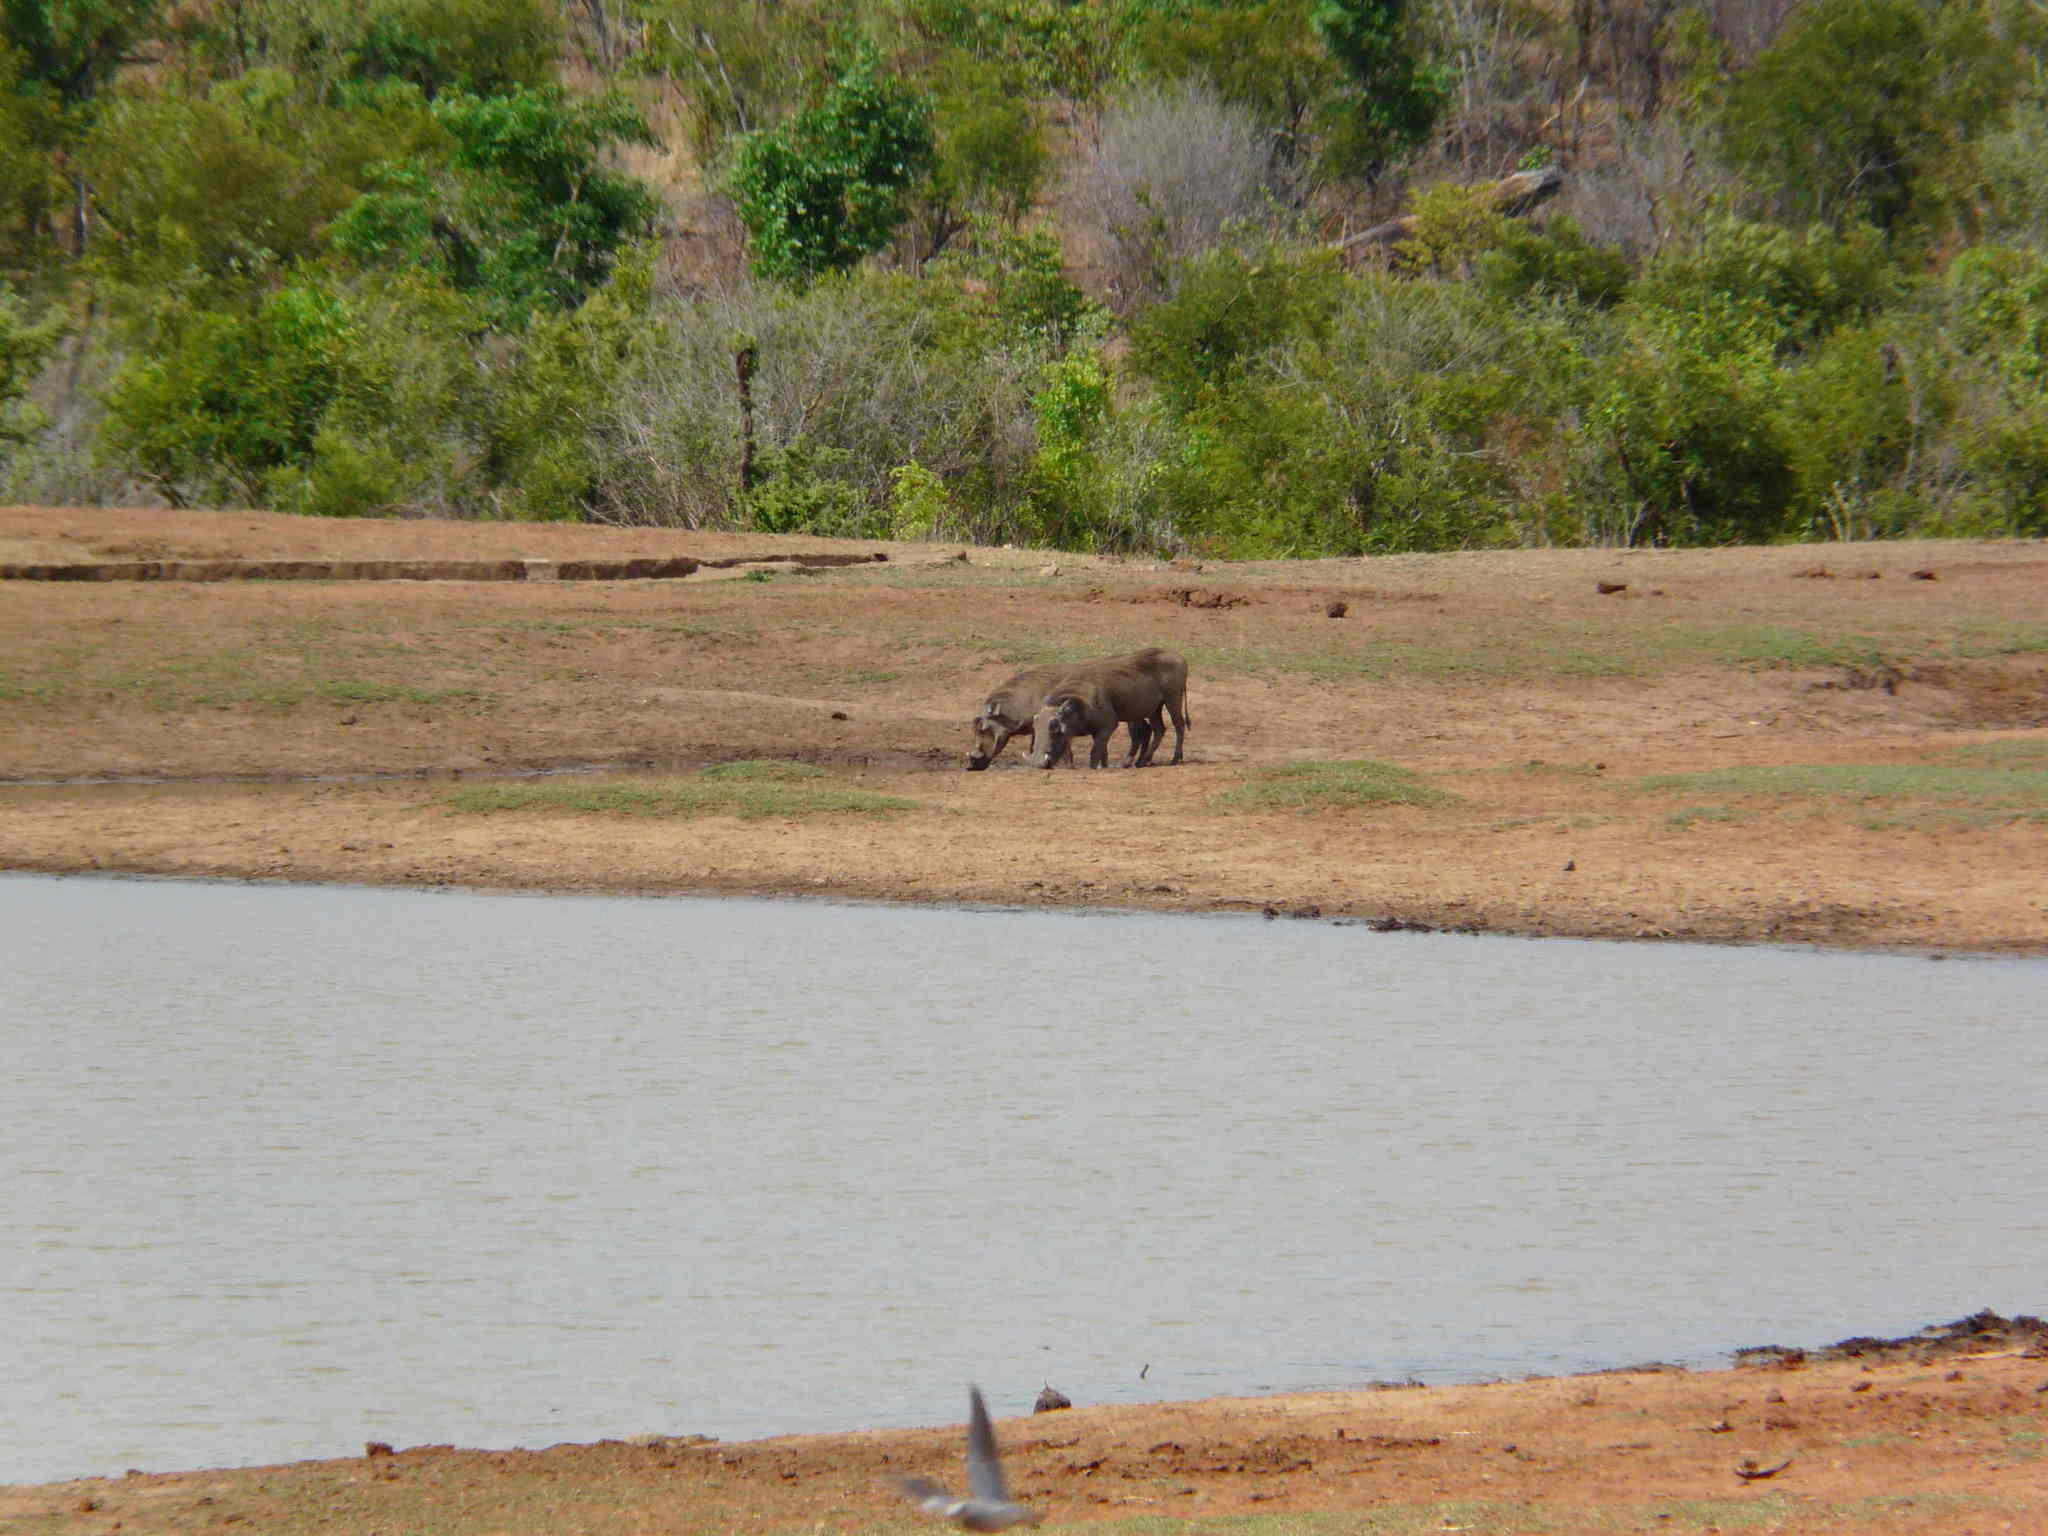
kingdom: Animalia
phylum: Chordata
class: Mammalia
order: Artiodactyla
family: Suidae
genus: Phacochoerus
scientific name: Phacochoerus africanus
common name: Common warthog
